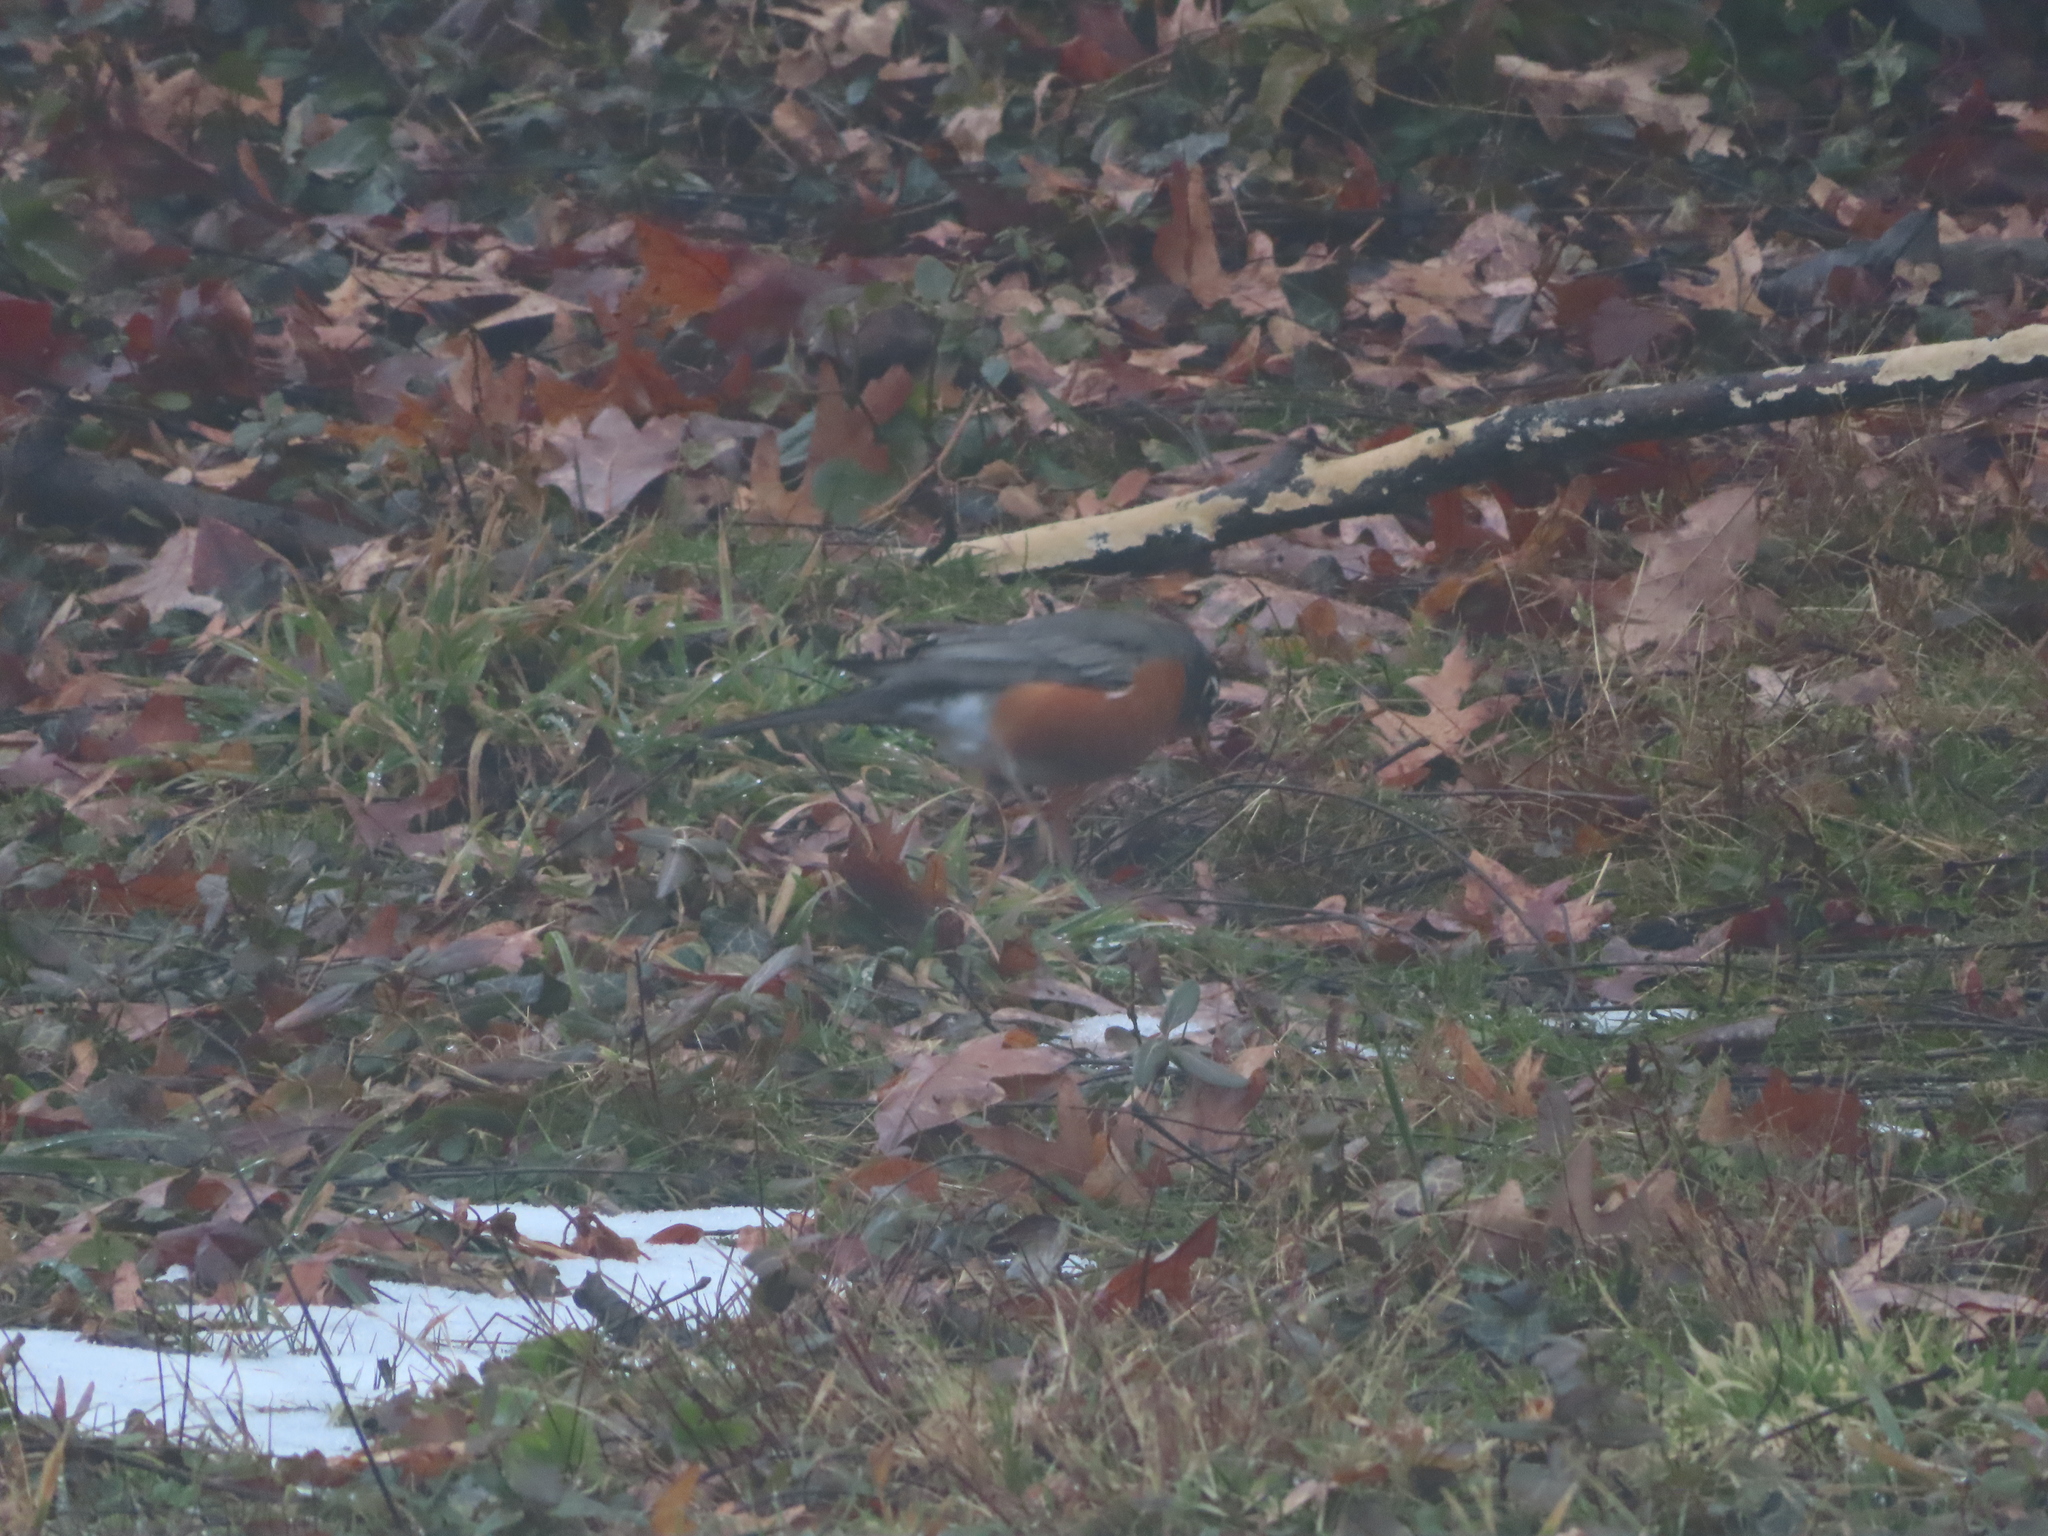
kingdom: Animalia
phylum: Chordata
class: Aves
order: Passeriformes
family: Turdidae
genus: Turdus
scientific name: Turdus migratorius
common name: American robin
